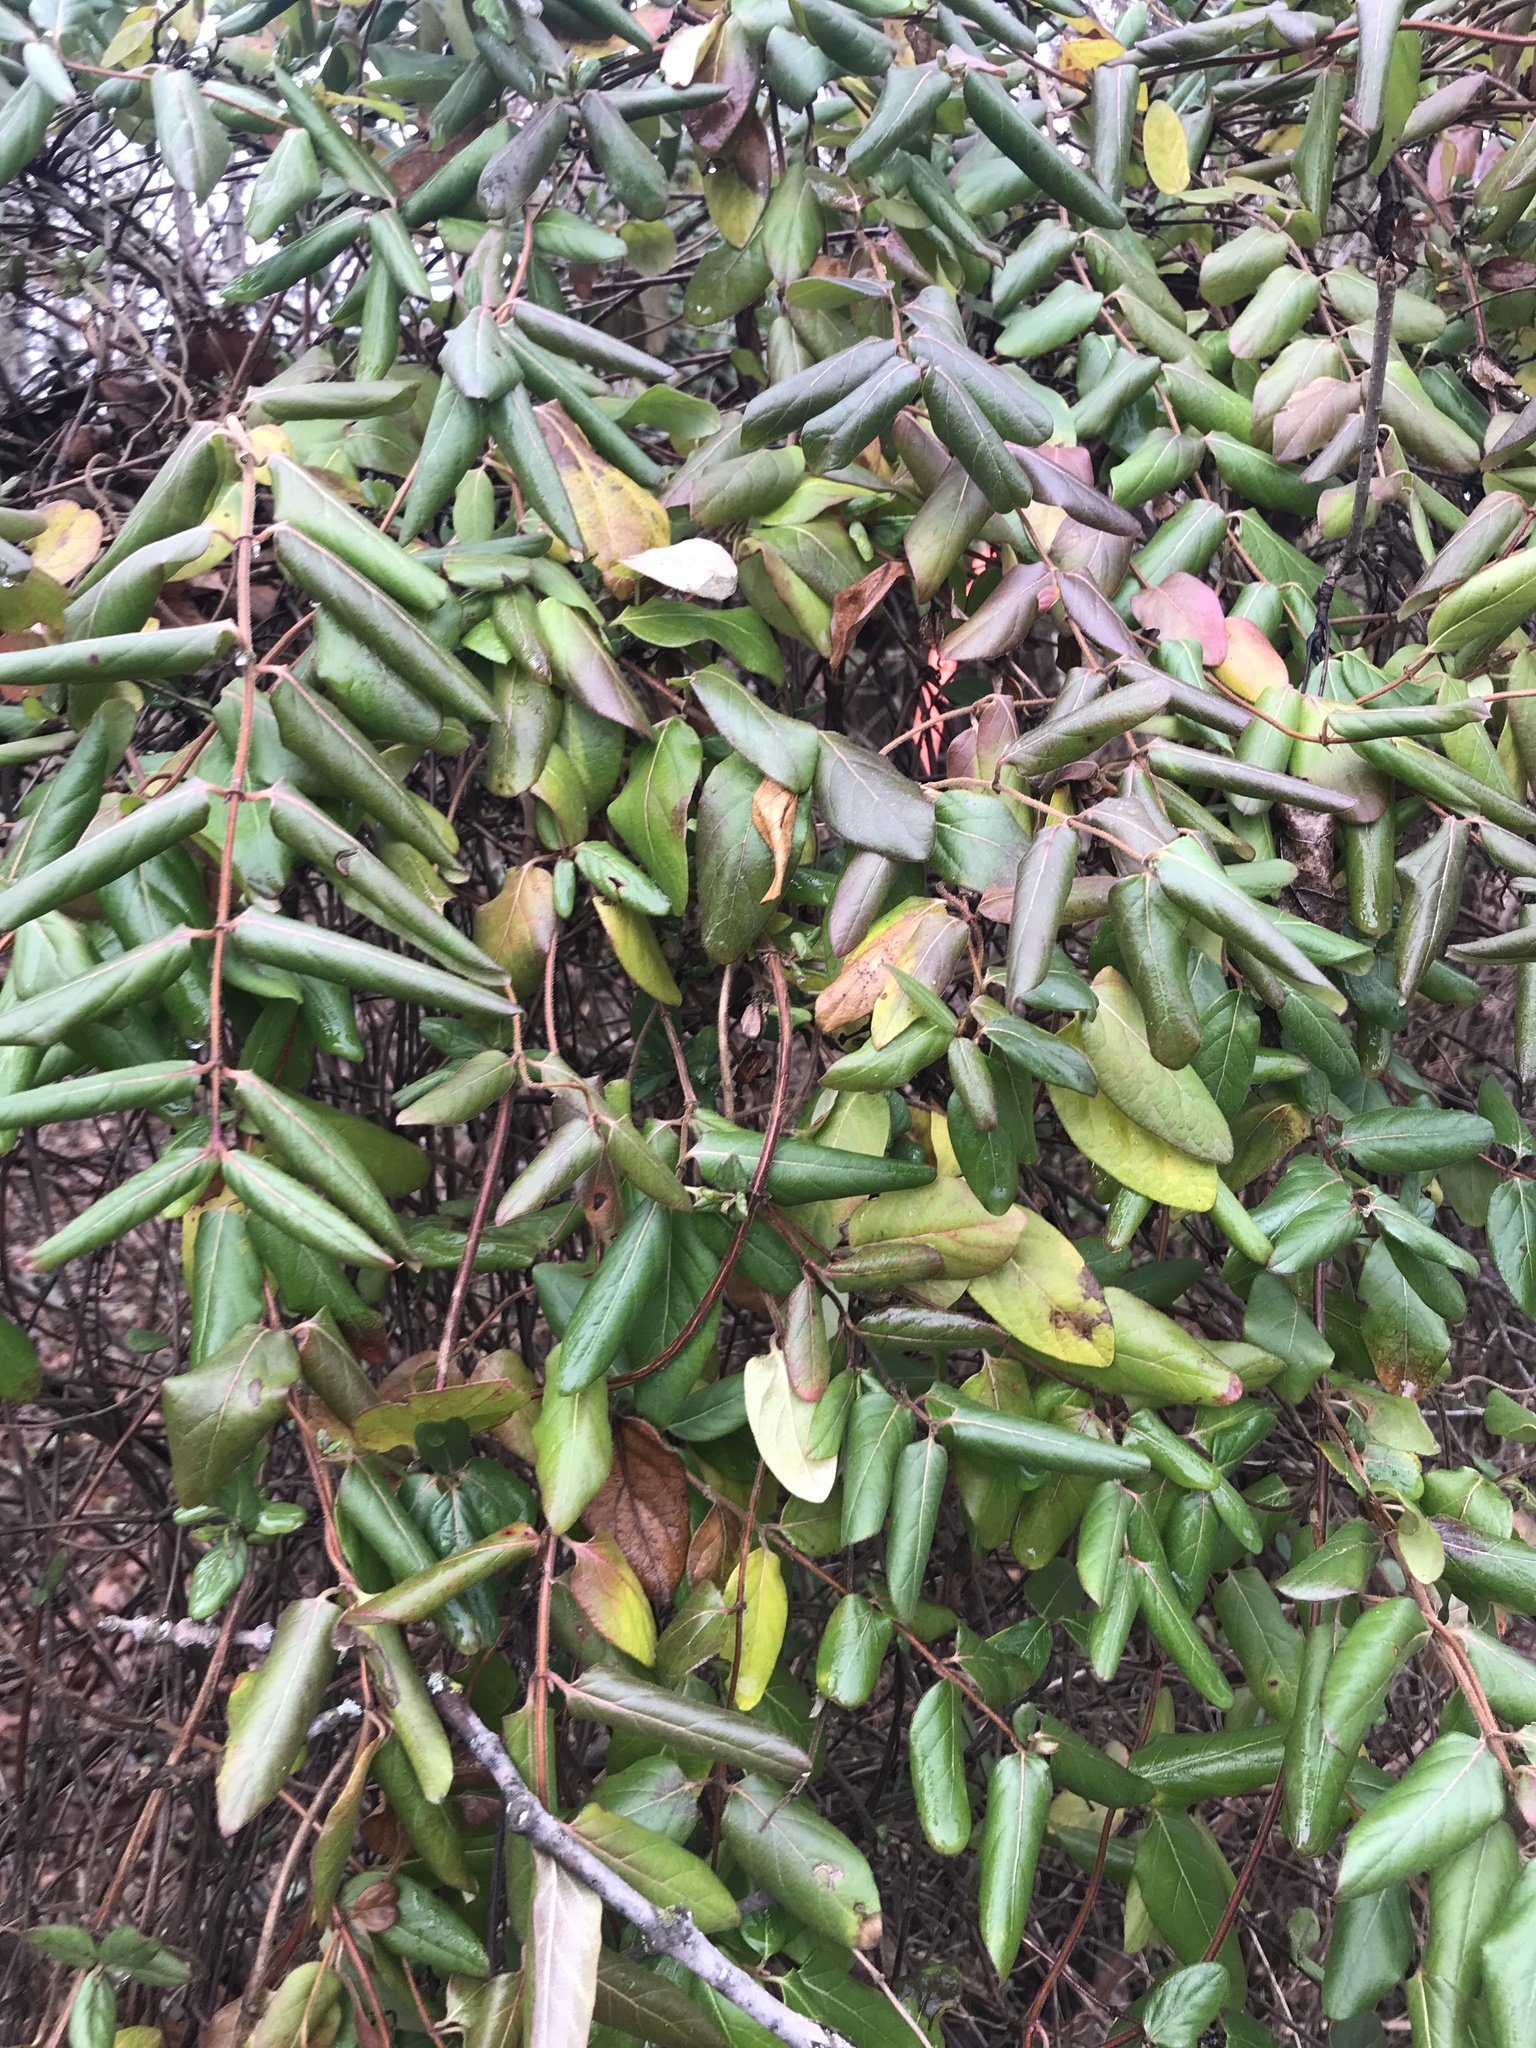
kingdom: Plantae
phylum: Tracheophyta
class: Magnoliopsida
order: Dipsacales
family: Caprifoliaceae
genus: Lonicera
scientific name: Lonicera japonica
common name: Japanese honeysuckle
